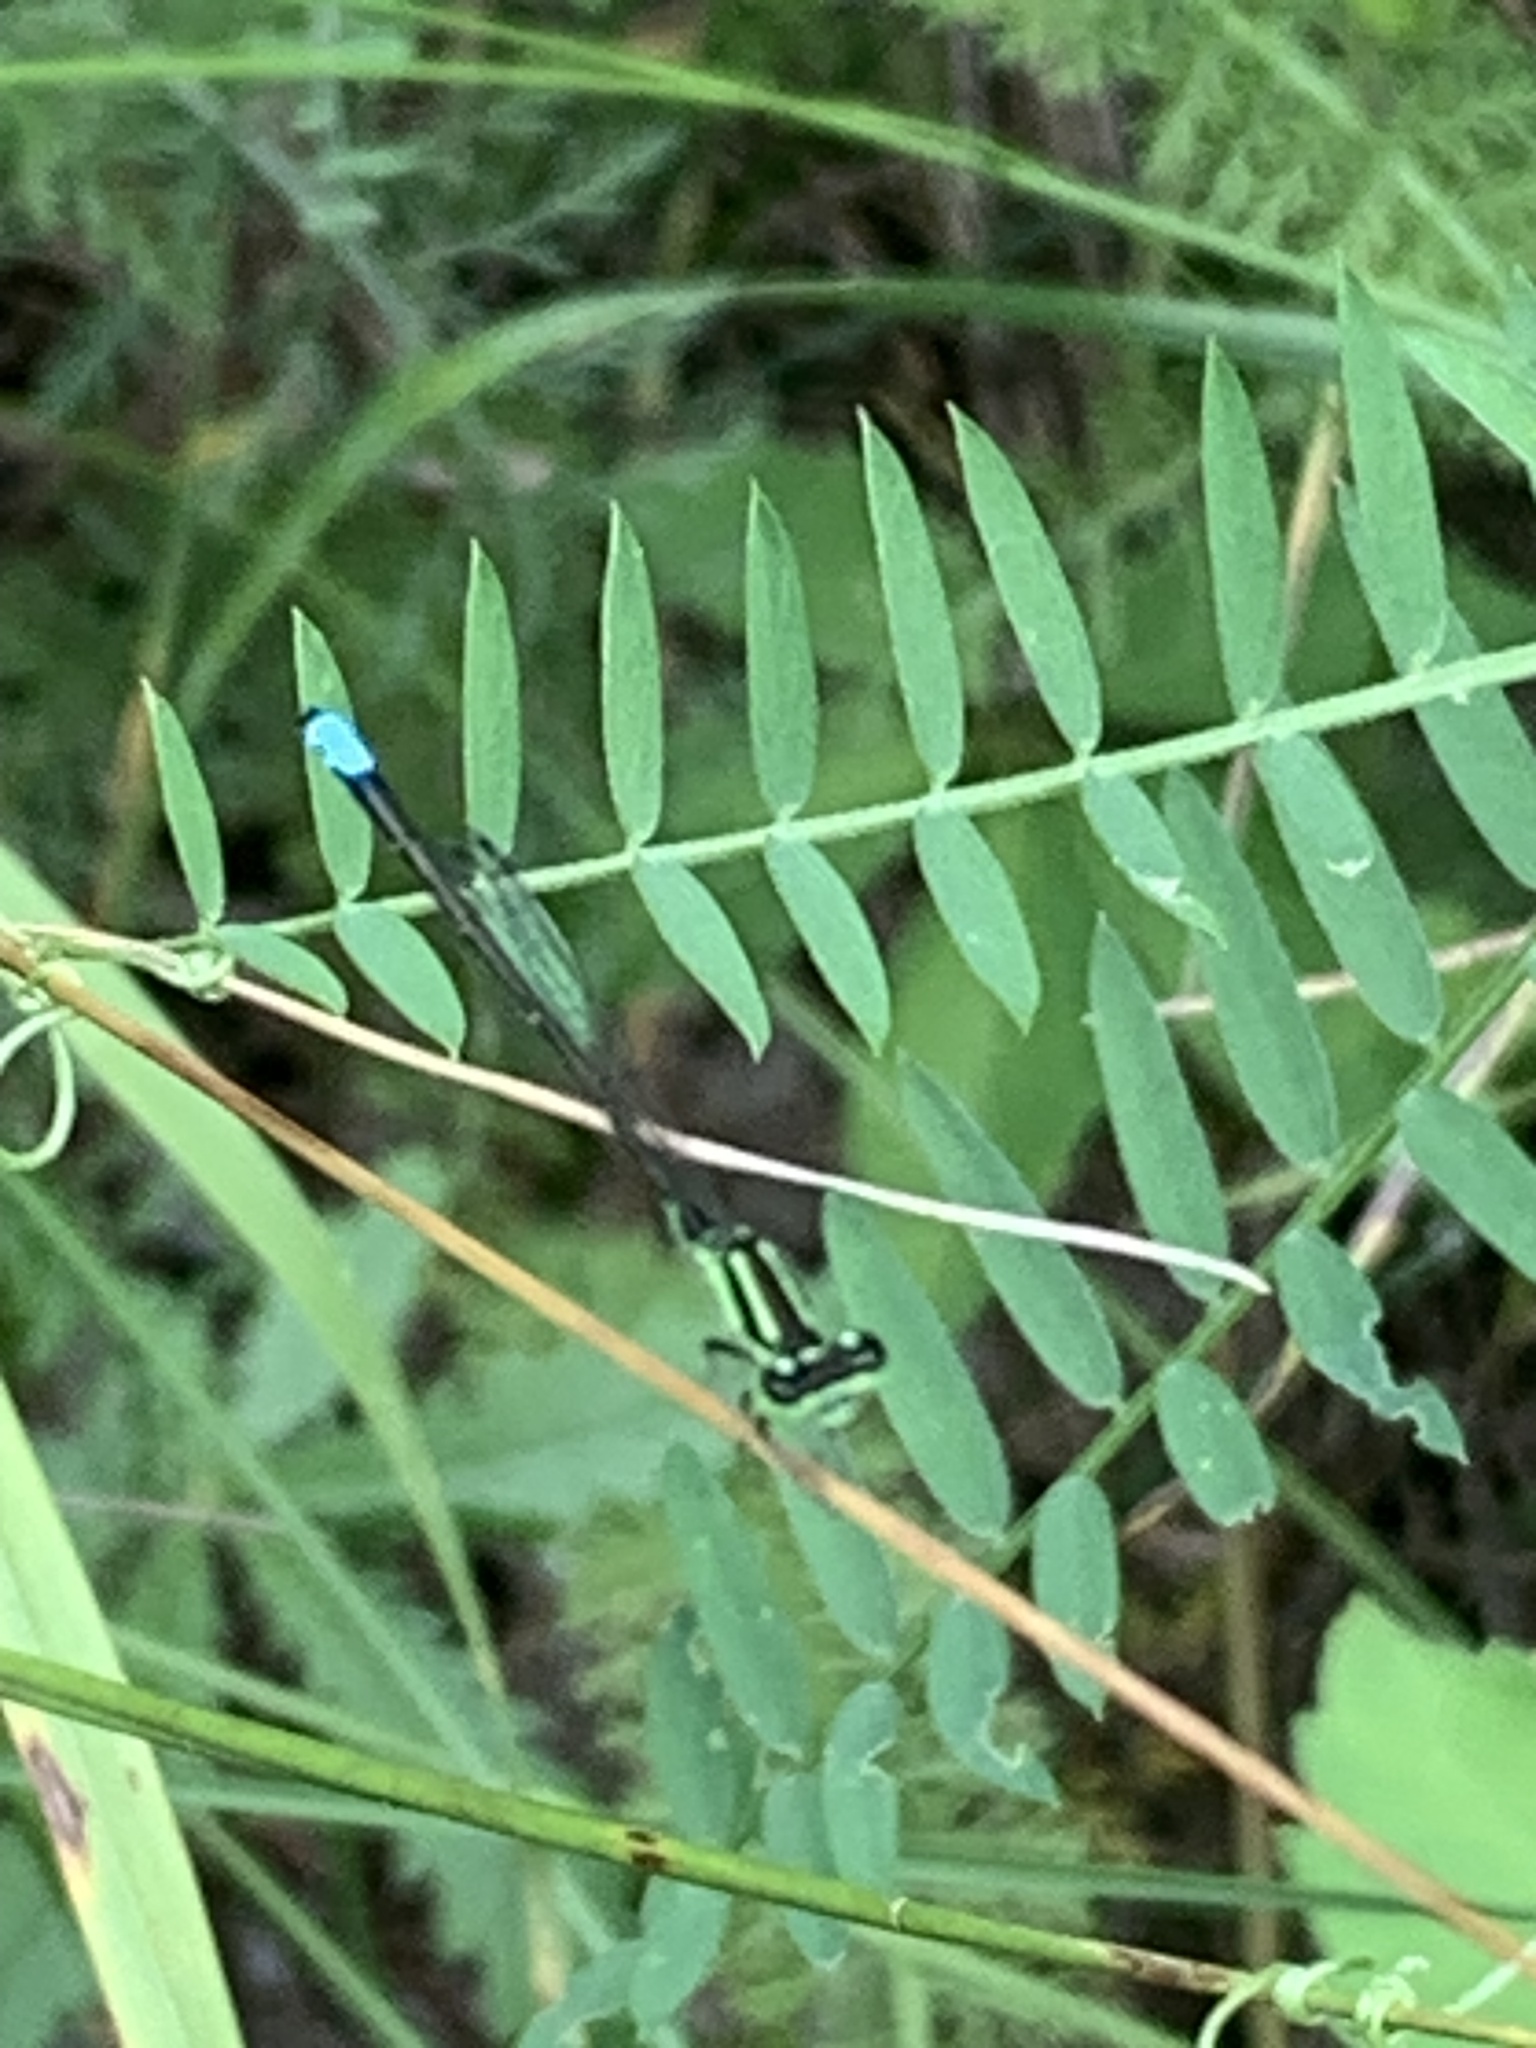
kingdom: Animalia
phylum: Arthropoda
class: Insecta
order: Odonata
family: Coenagrionidae
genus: Ischnura
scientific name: Ischnura verticalis
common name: Eastern forktail
